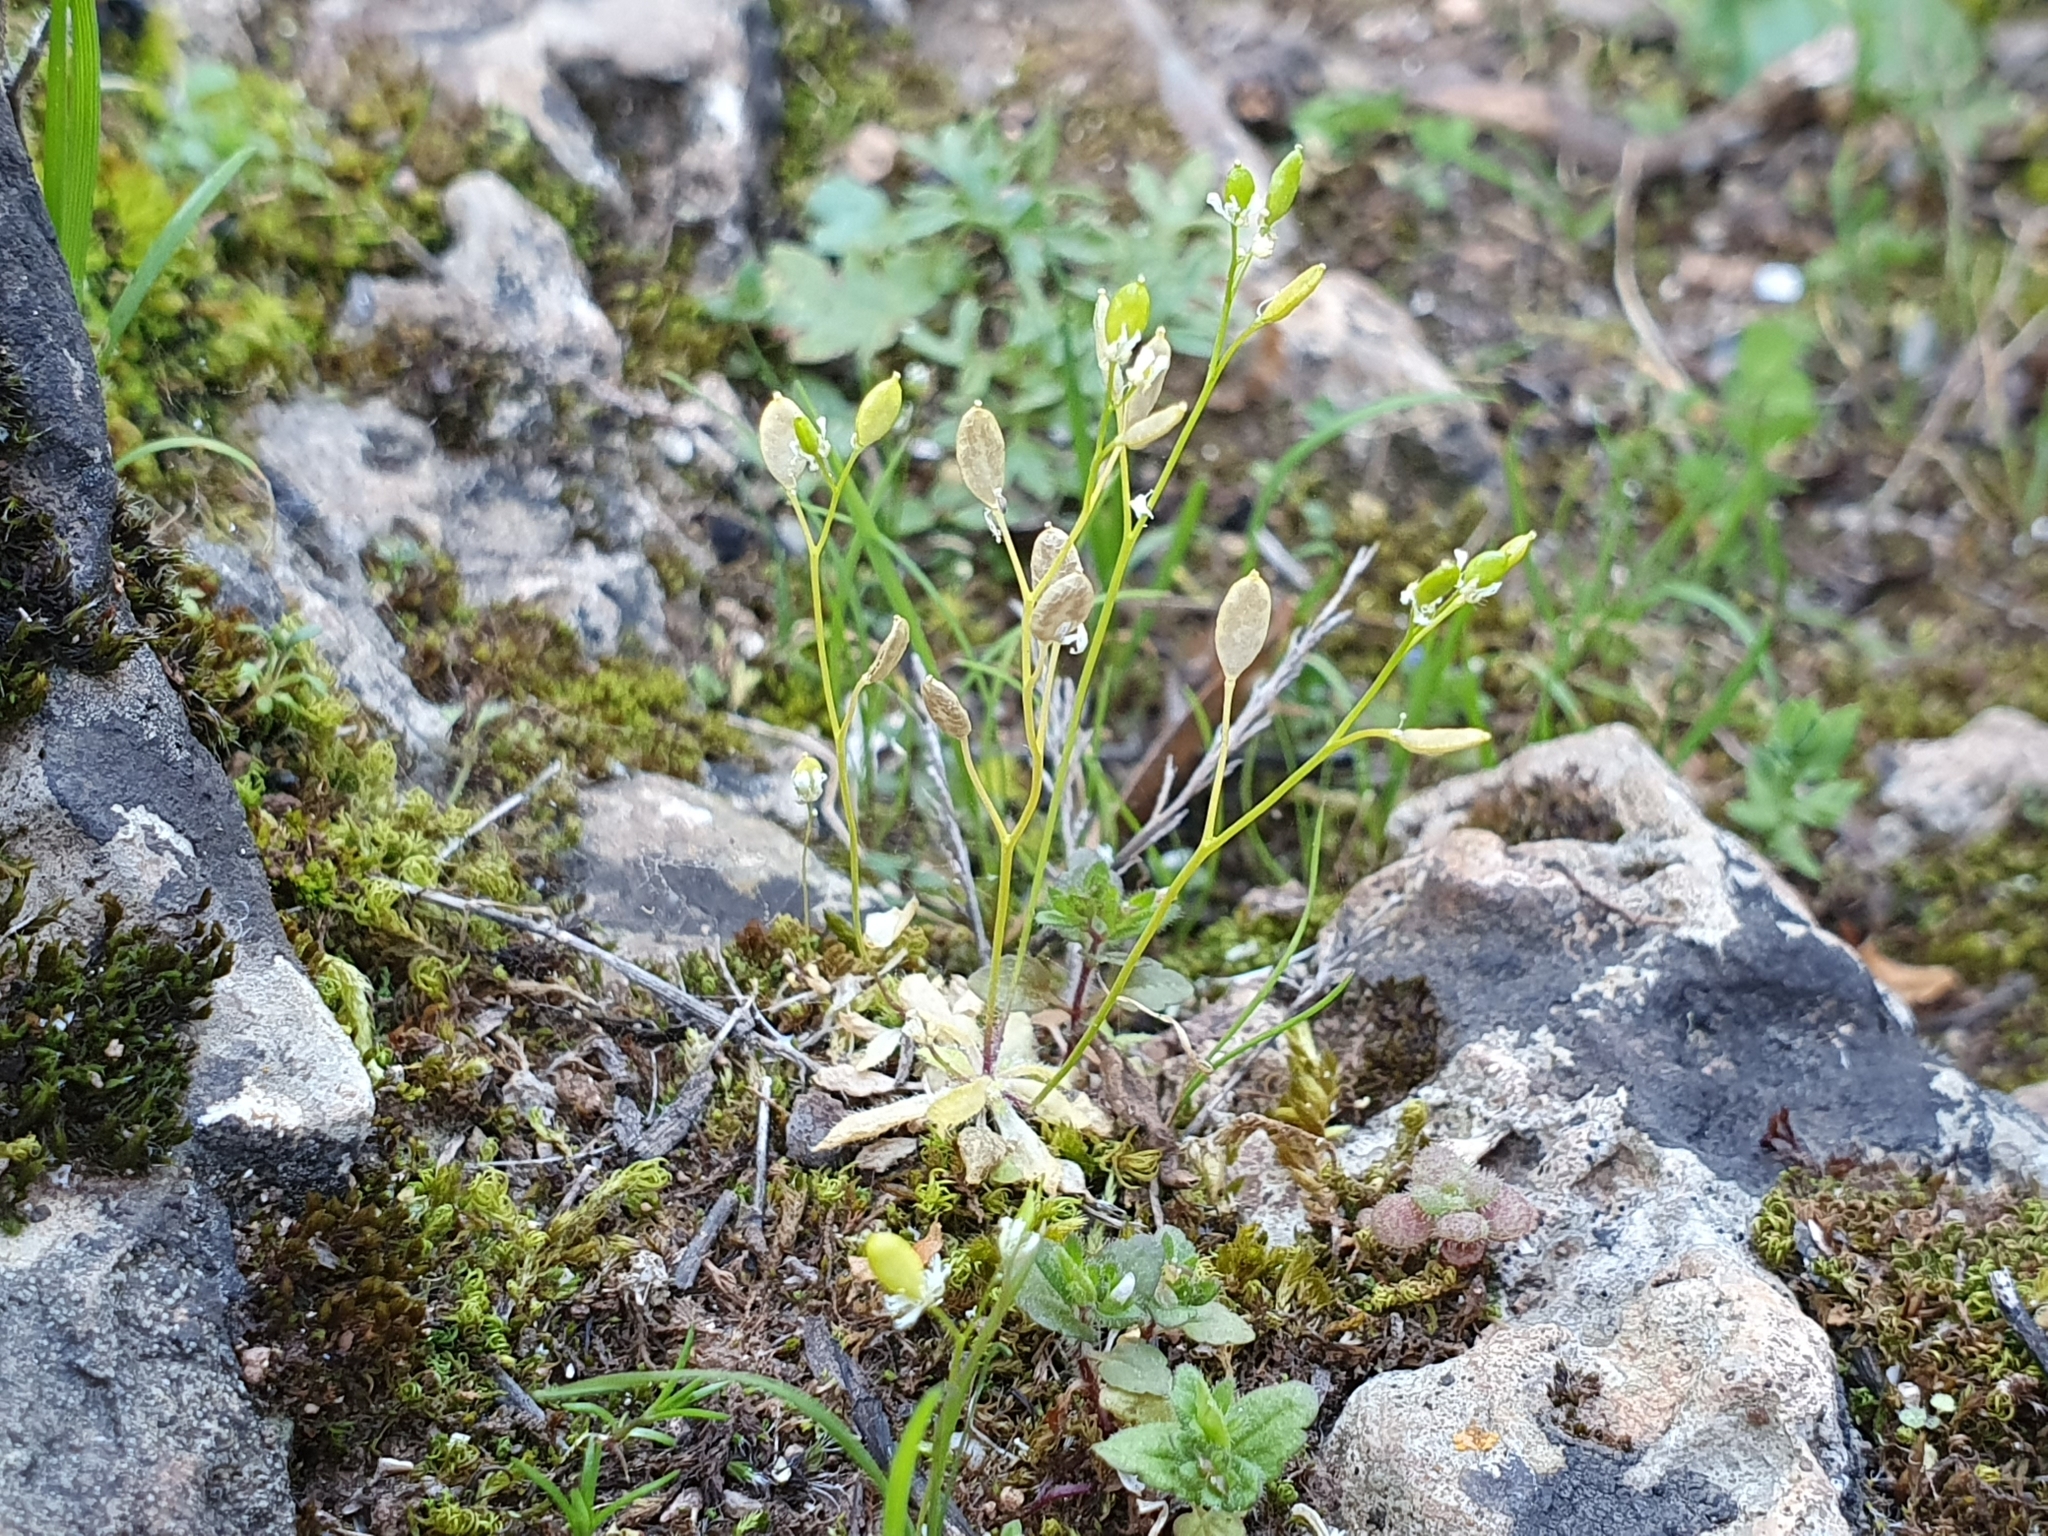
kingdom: Plantae
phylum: Tracheophyta
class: Magnoliopsida
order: Brassicales
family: Brassicaceae
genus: Draba
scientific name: Draba verna
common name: Spring draba
